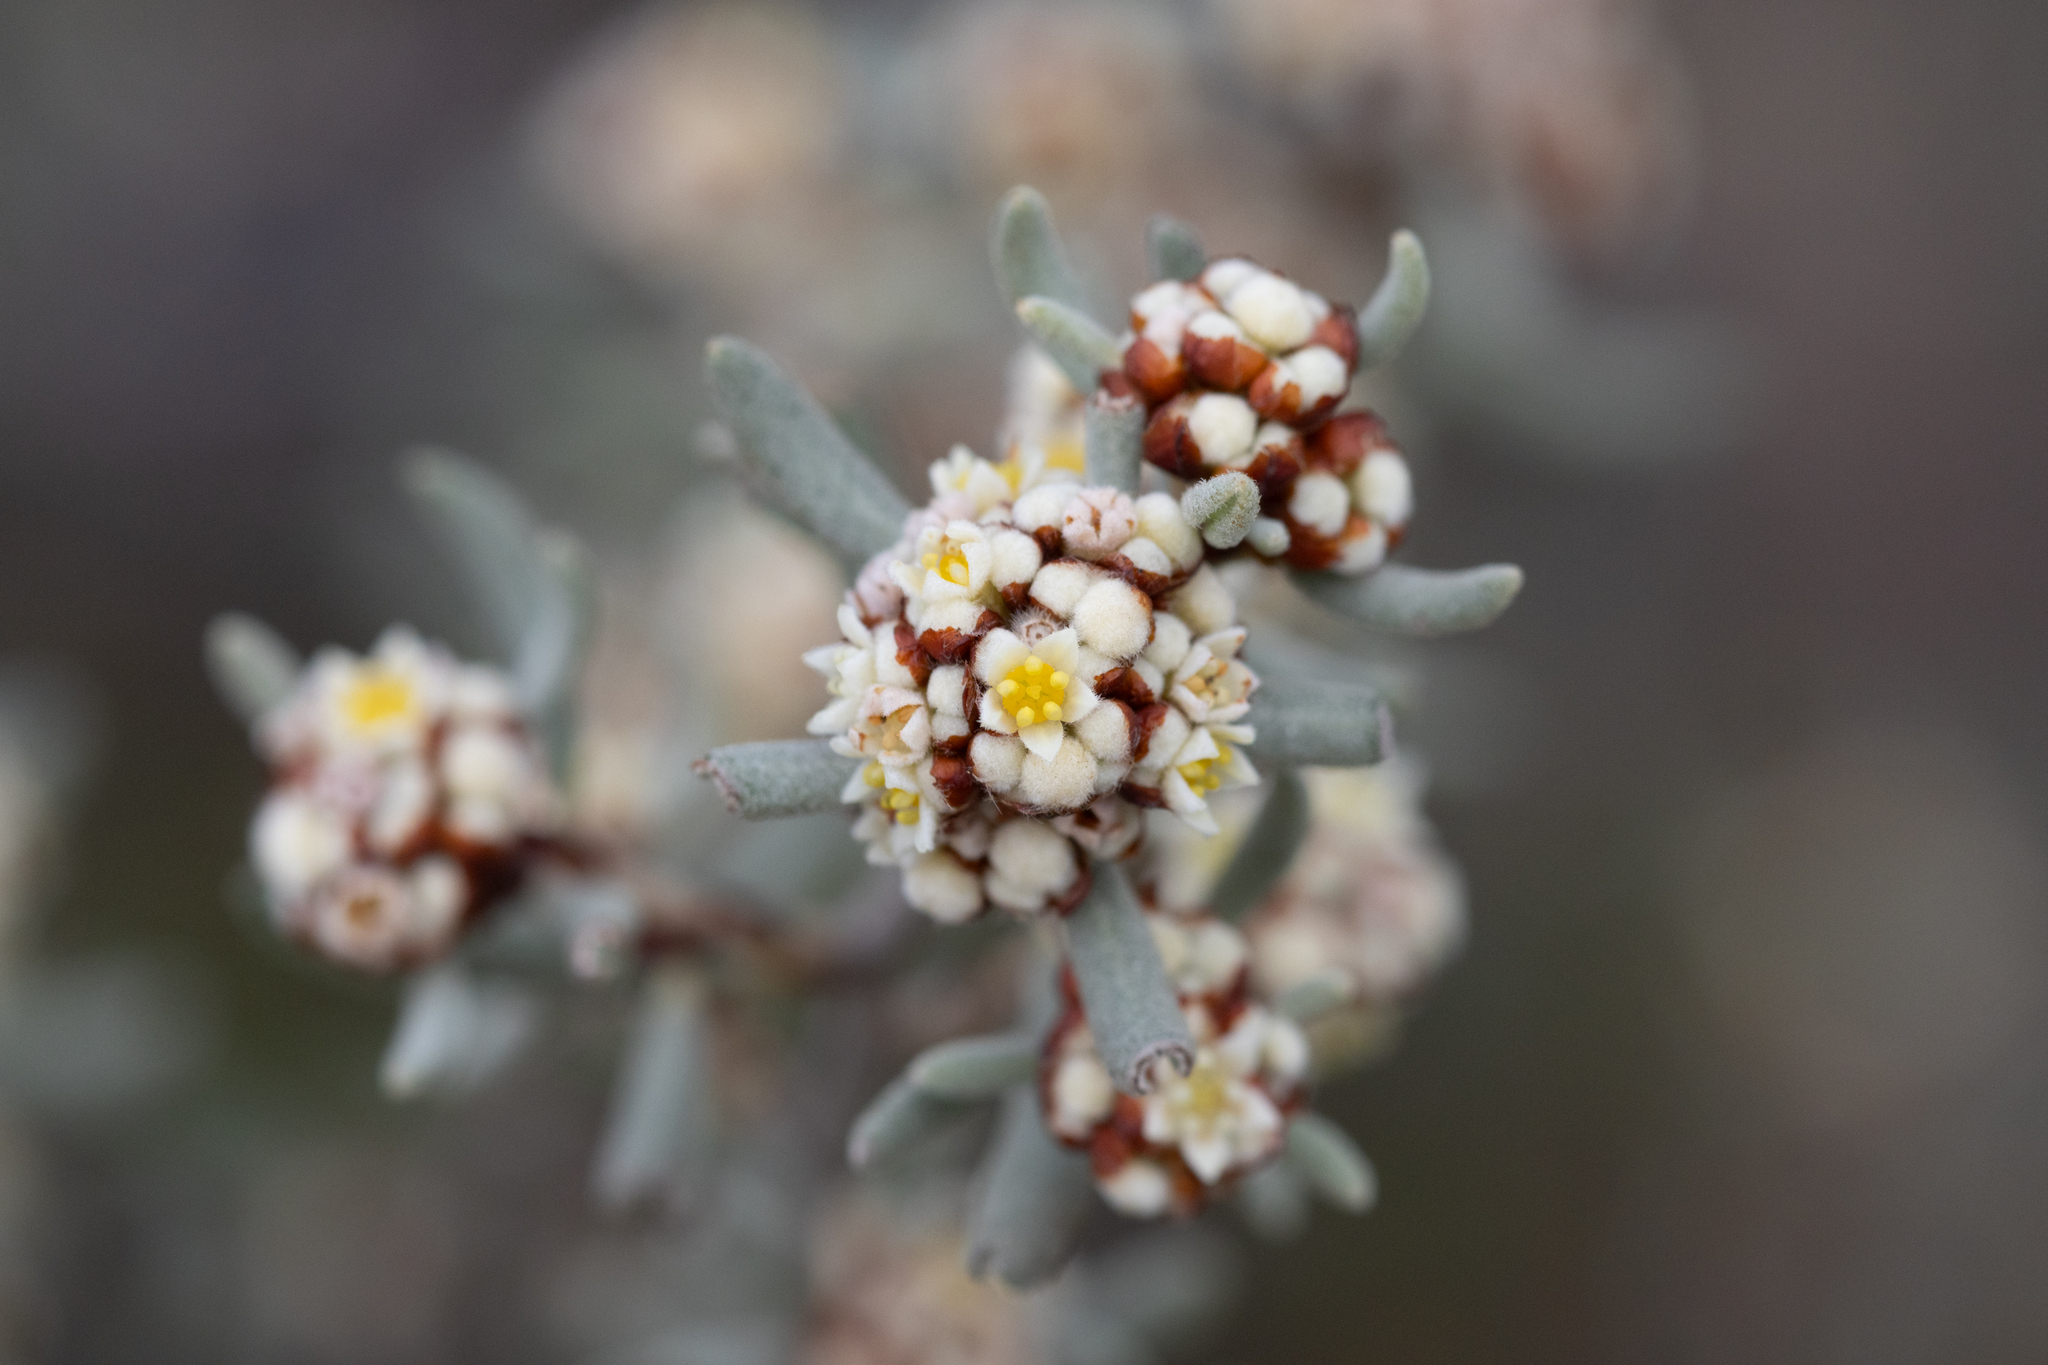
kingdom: Plantae
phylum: Tracheophyta
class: Magnoliopsida
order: Rosales
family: Rhamnaceae
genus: Spyridium
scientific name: Spyridium subochreatum
